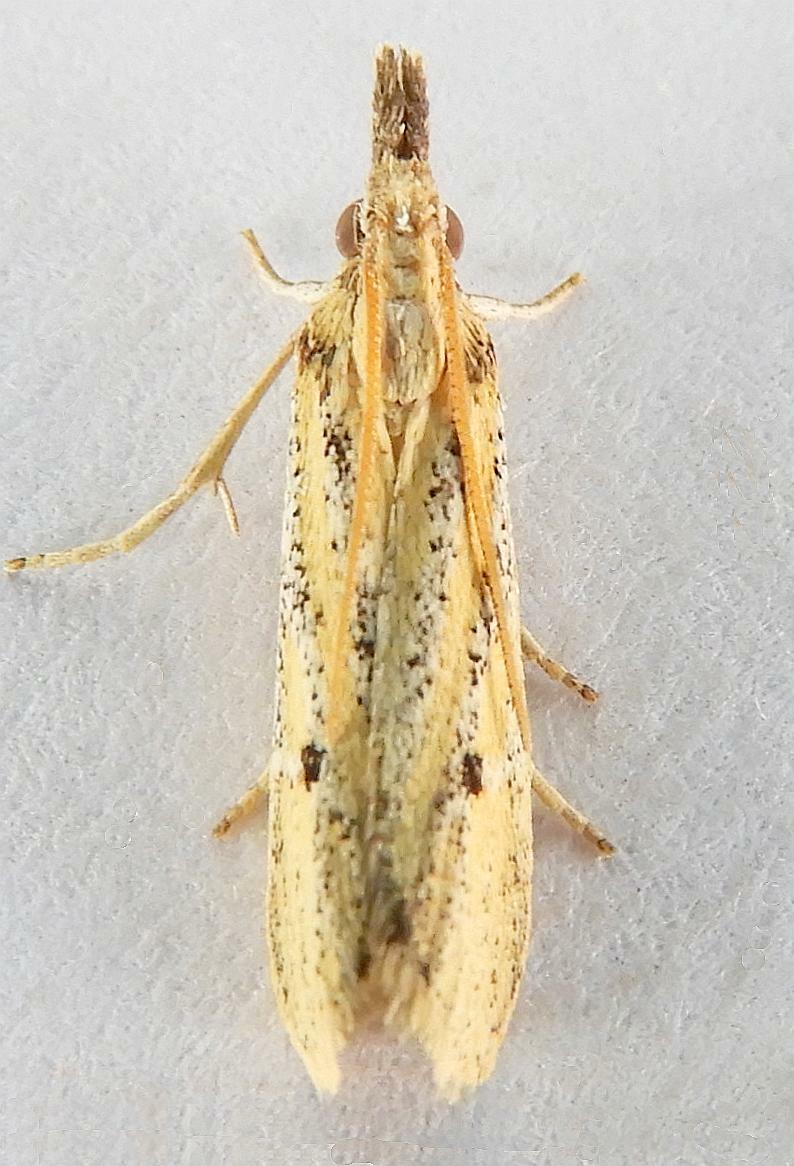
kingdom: Animalia
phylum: Arthropoda
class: Insecta
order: Lepidoptera
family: Pyralidae
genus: Coenochroa
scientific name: Coenochroa bipunctella
